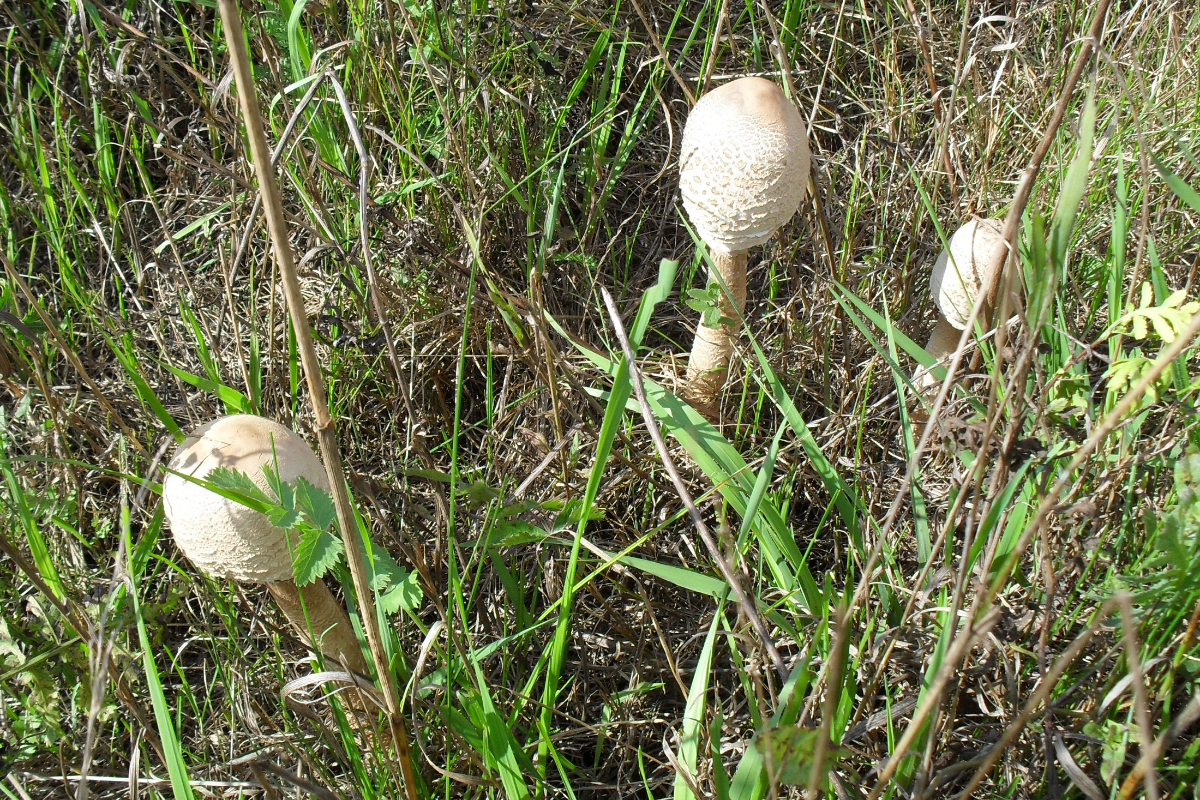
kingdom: Fungi
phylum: Basidiomycota
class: Agaricomycetes
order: Agaricales
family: Agaricaceae
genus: Macrolepiota
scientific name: Macrolepiota procera
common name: Parasol
